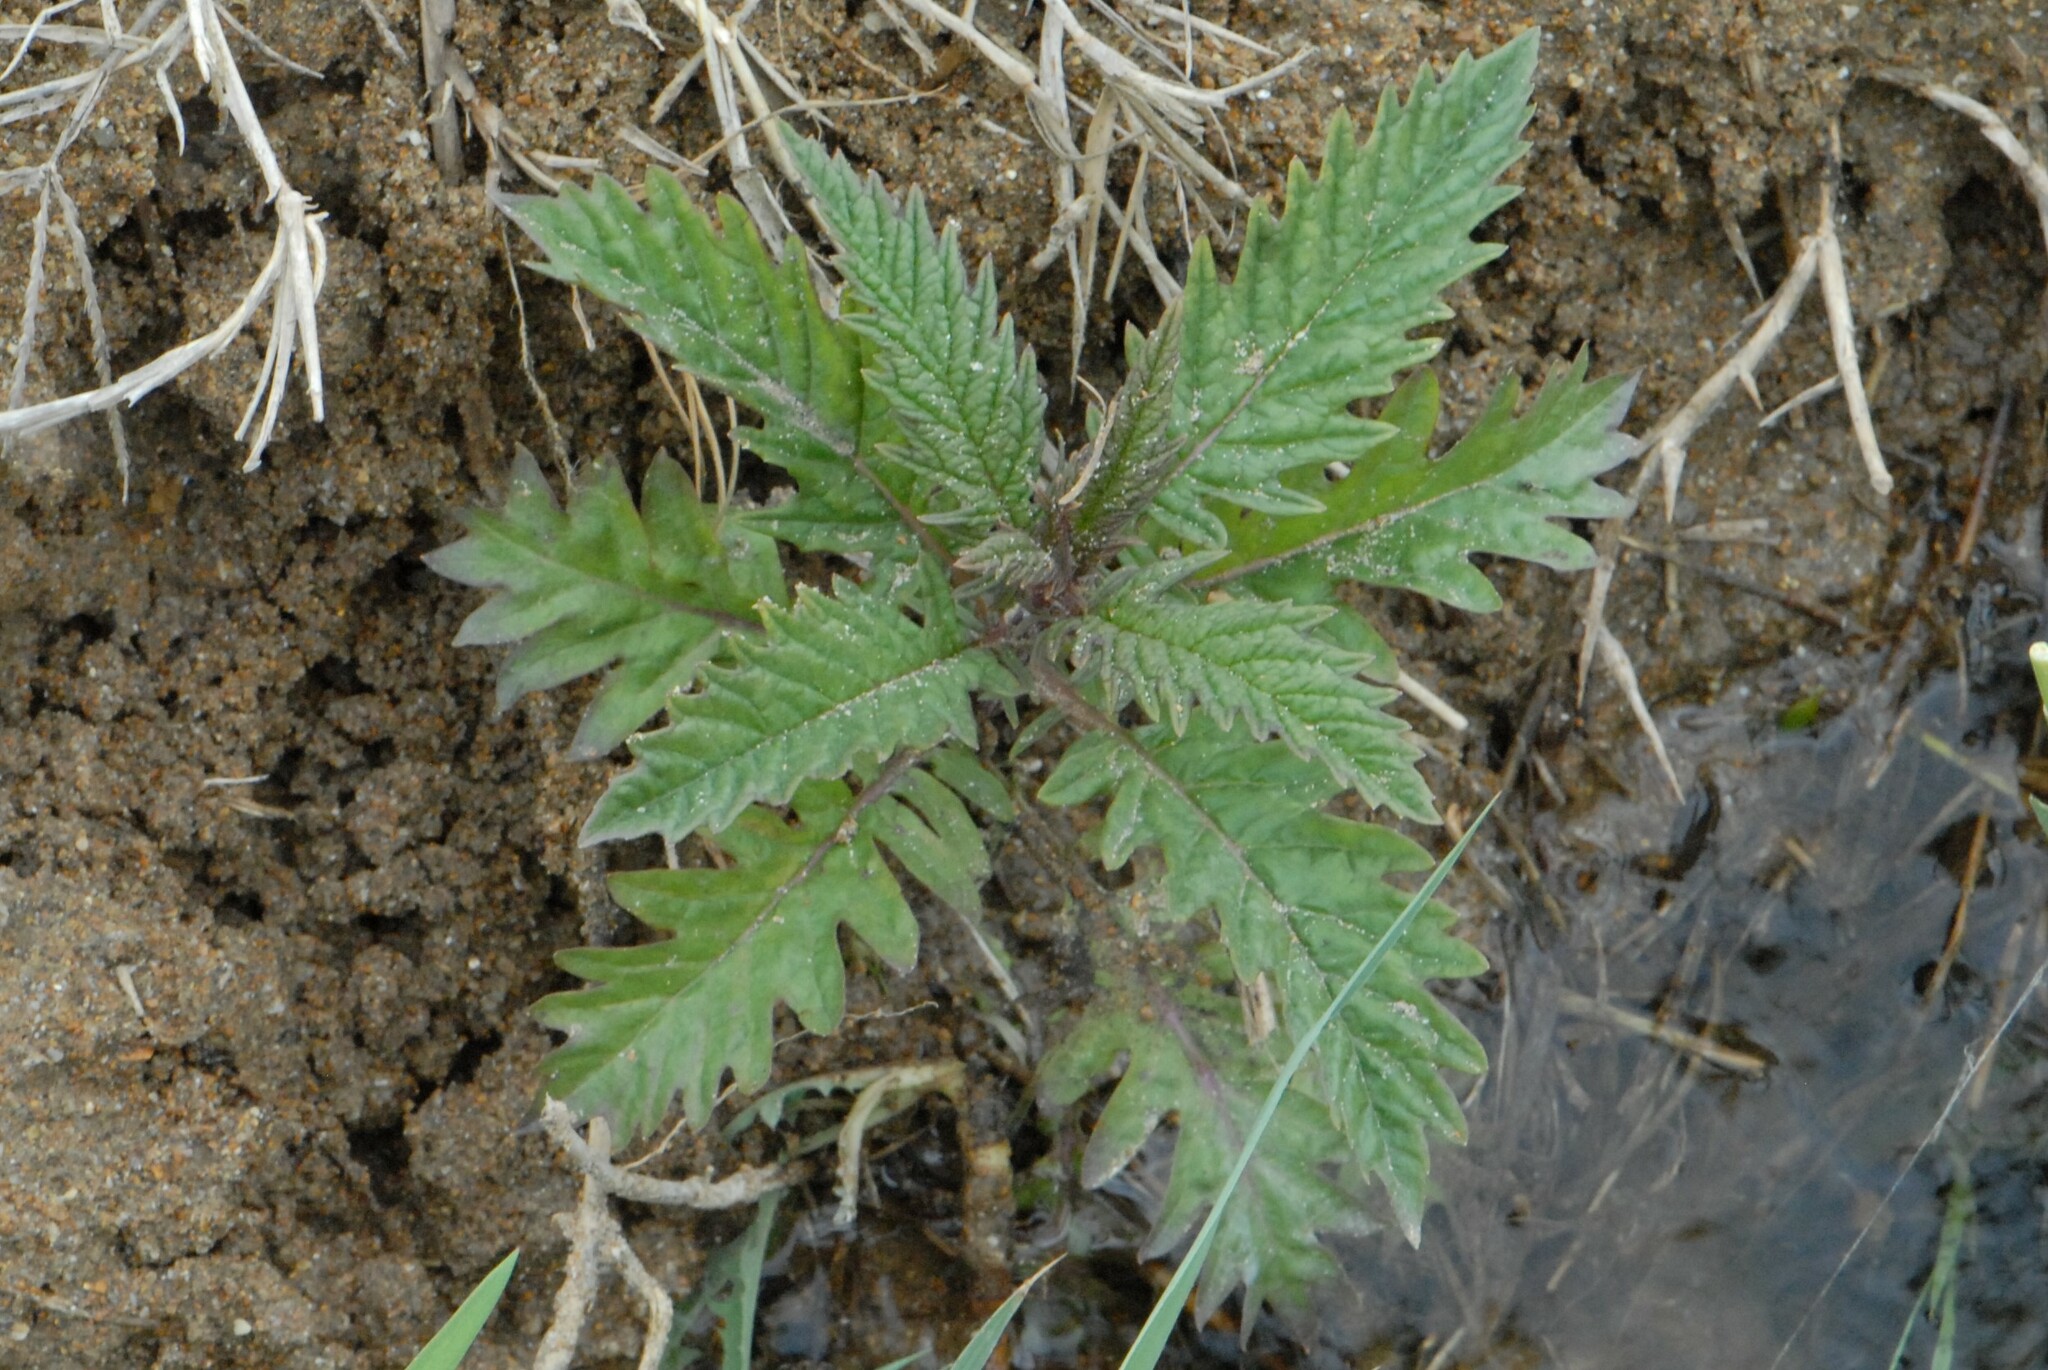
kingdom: Plantae
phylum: Tracheophyta
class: Magnoliopsida
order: Lamiales
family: Lamiaceae
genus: Lycopus
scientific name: Lycopus europaeus
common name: European bugleweed
